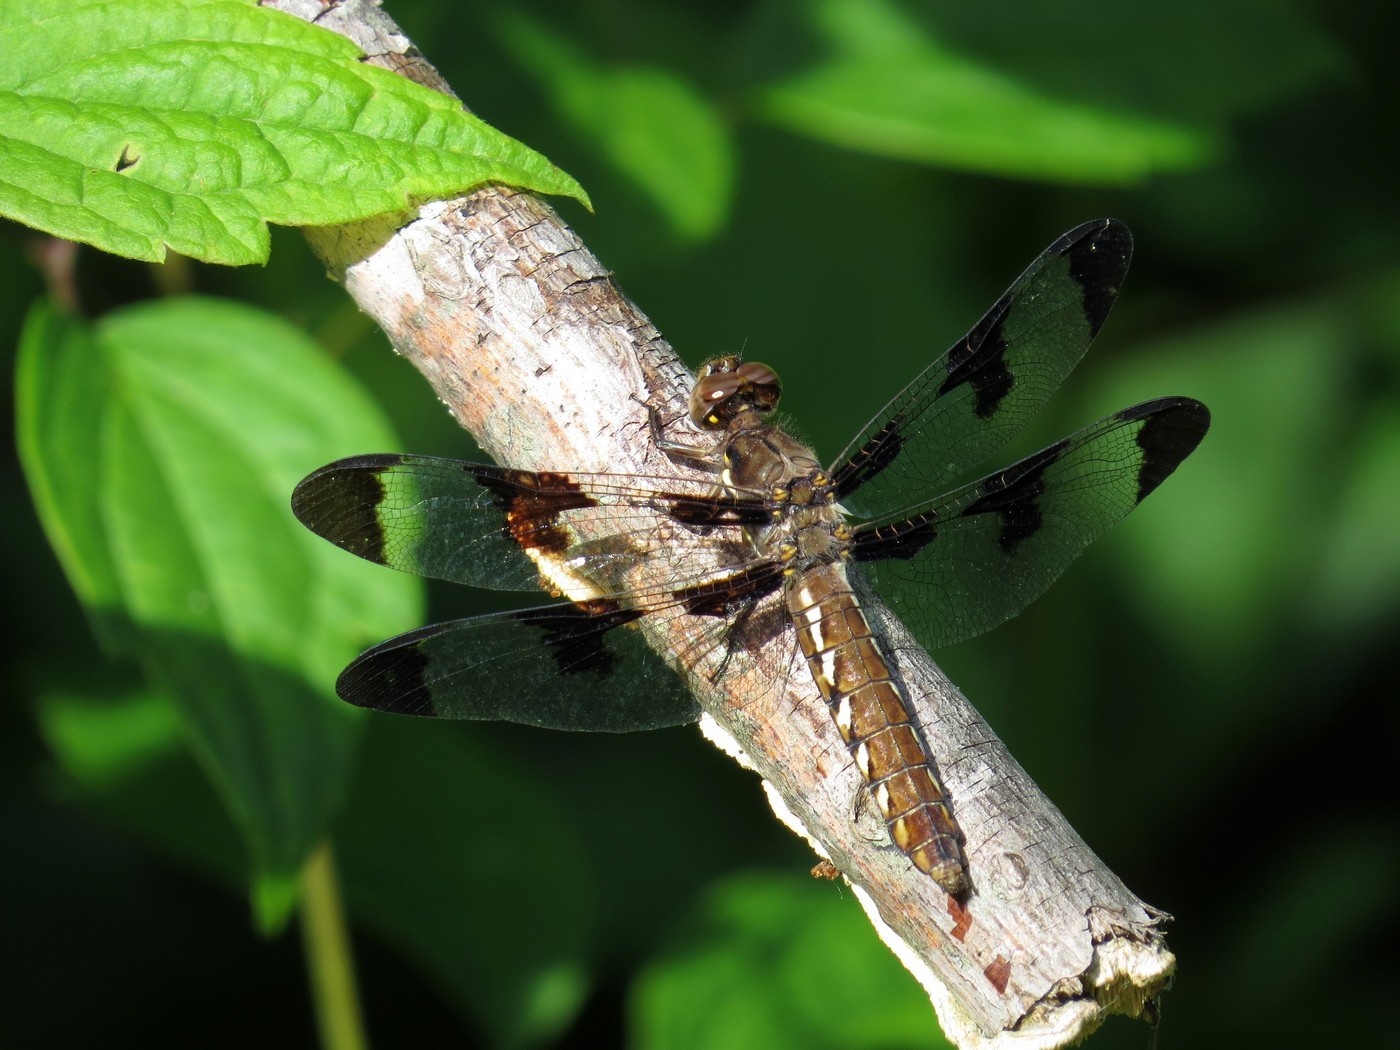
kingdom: Animalia
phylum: Arthropoda
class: Insecta
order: Odonata
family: Libellulidae
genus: Plathemis
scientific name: Plathemis lydia
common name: Common whitetail
